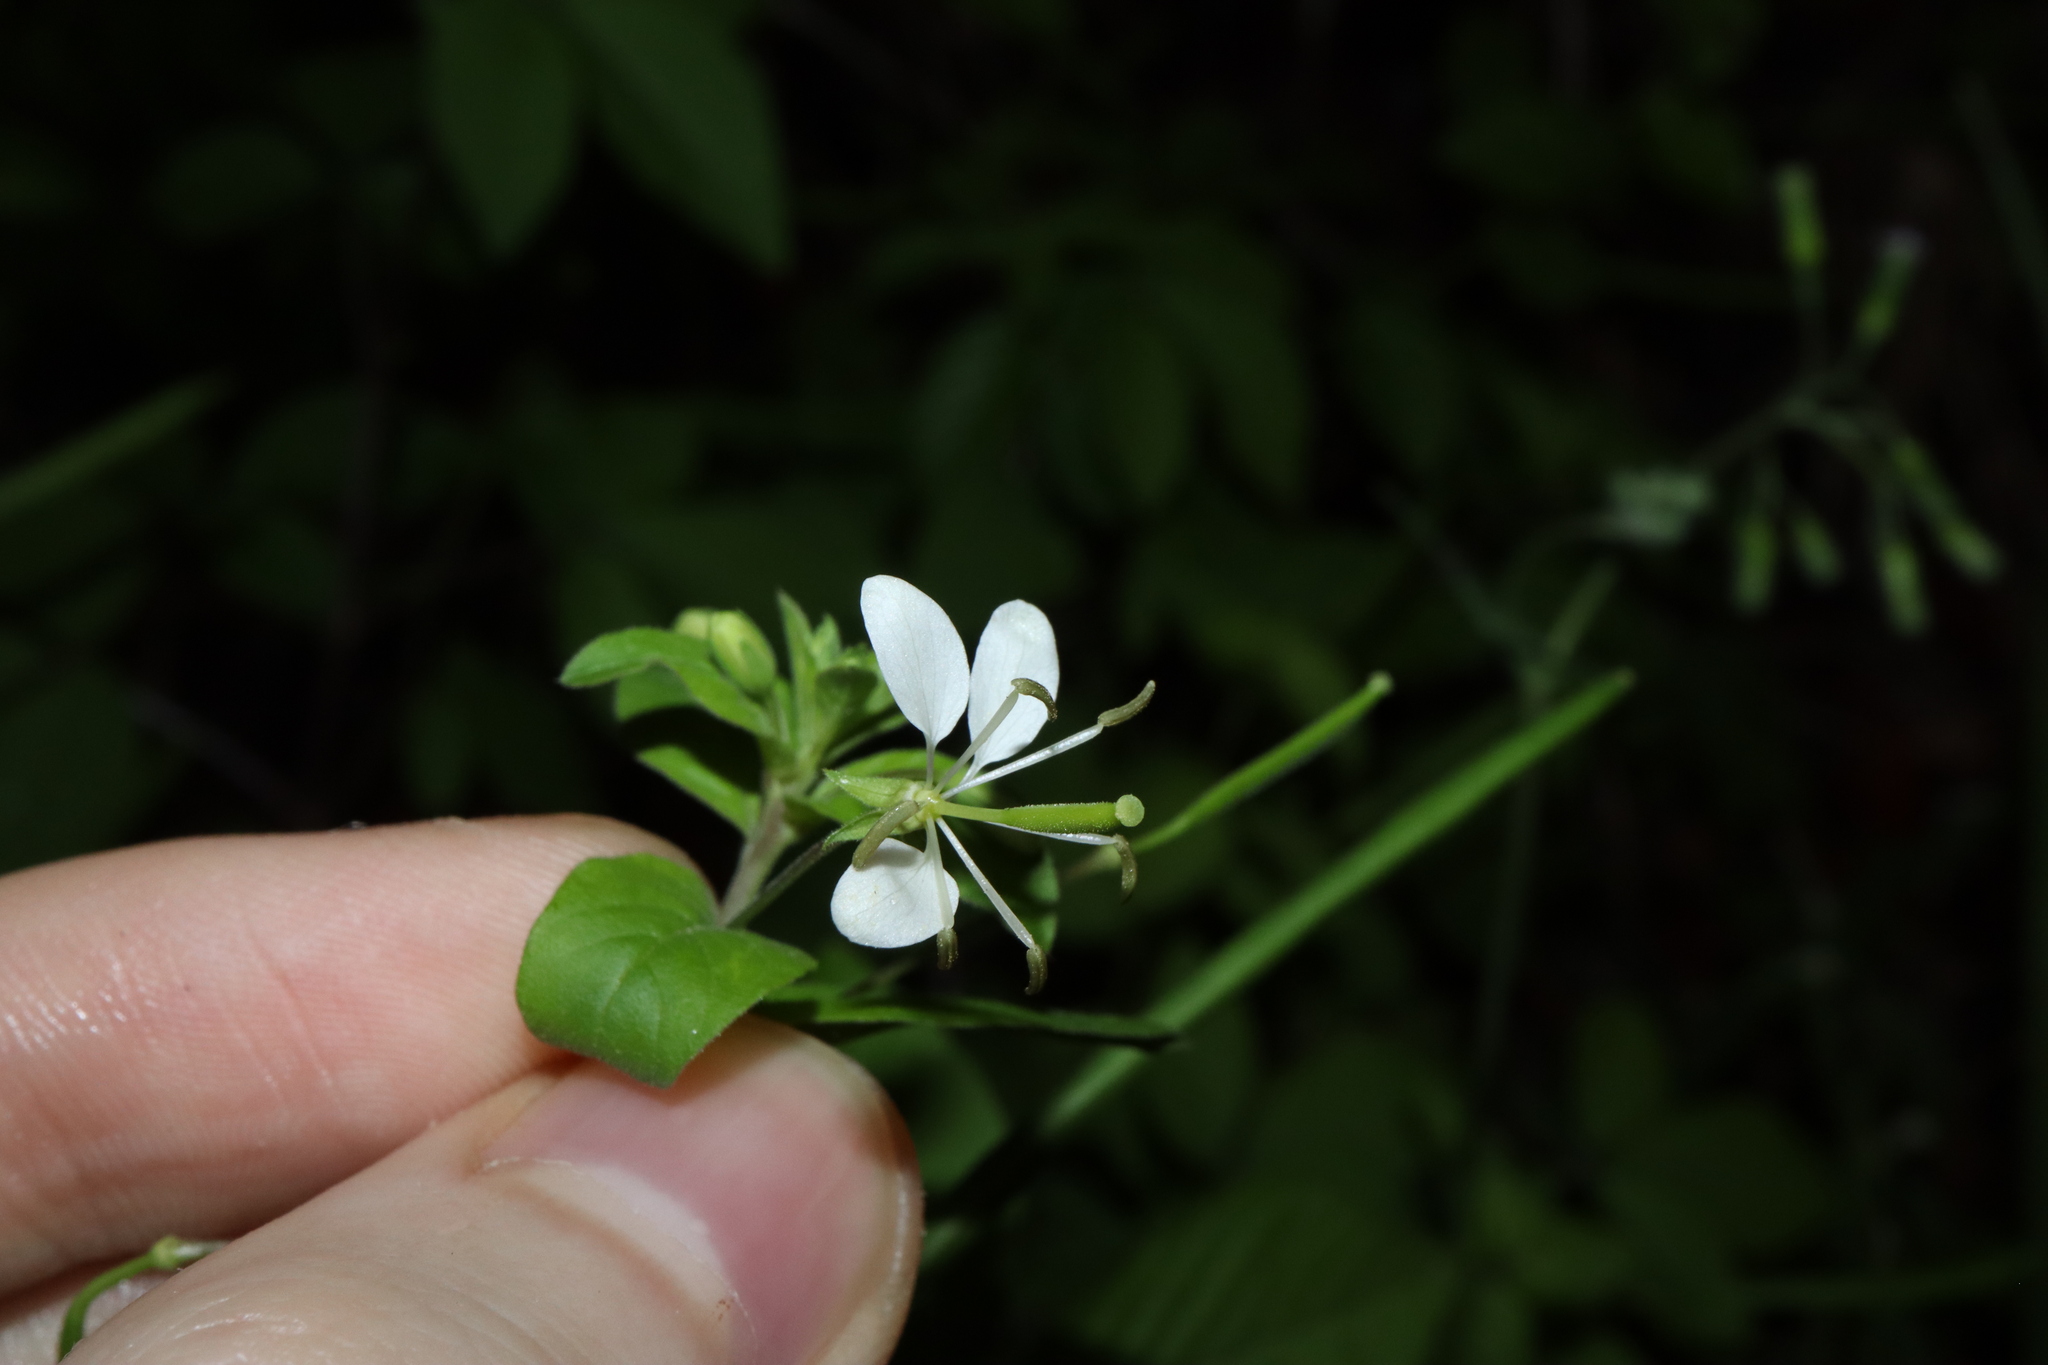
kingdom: Plantae
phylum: Tracheophyta
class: Magnoliopsida
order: Brassicales
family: Cleomaceae
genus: Tarenaya
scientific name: Tarenaya aculeata
